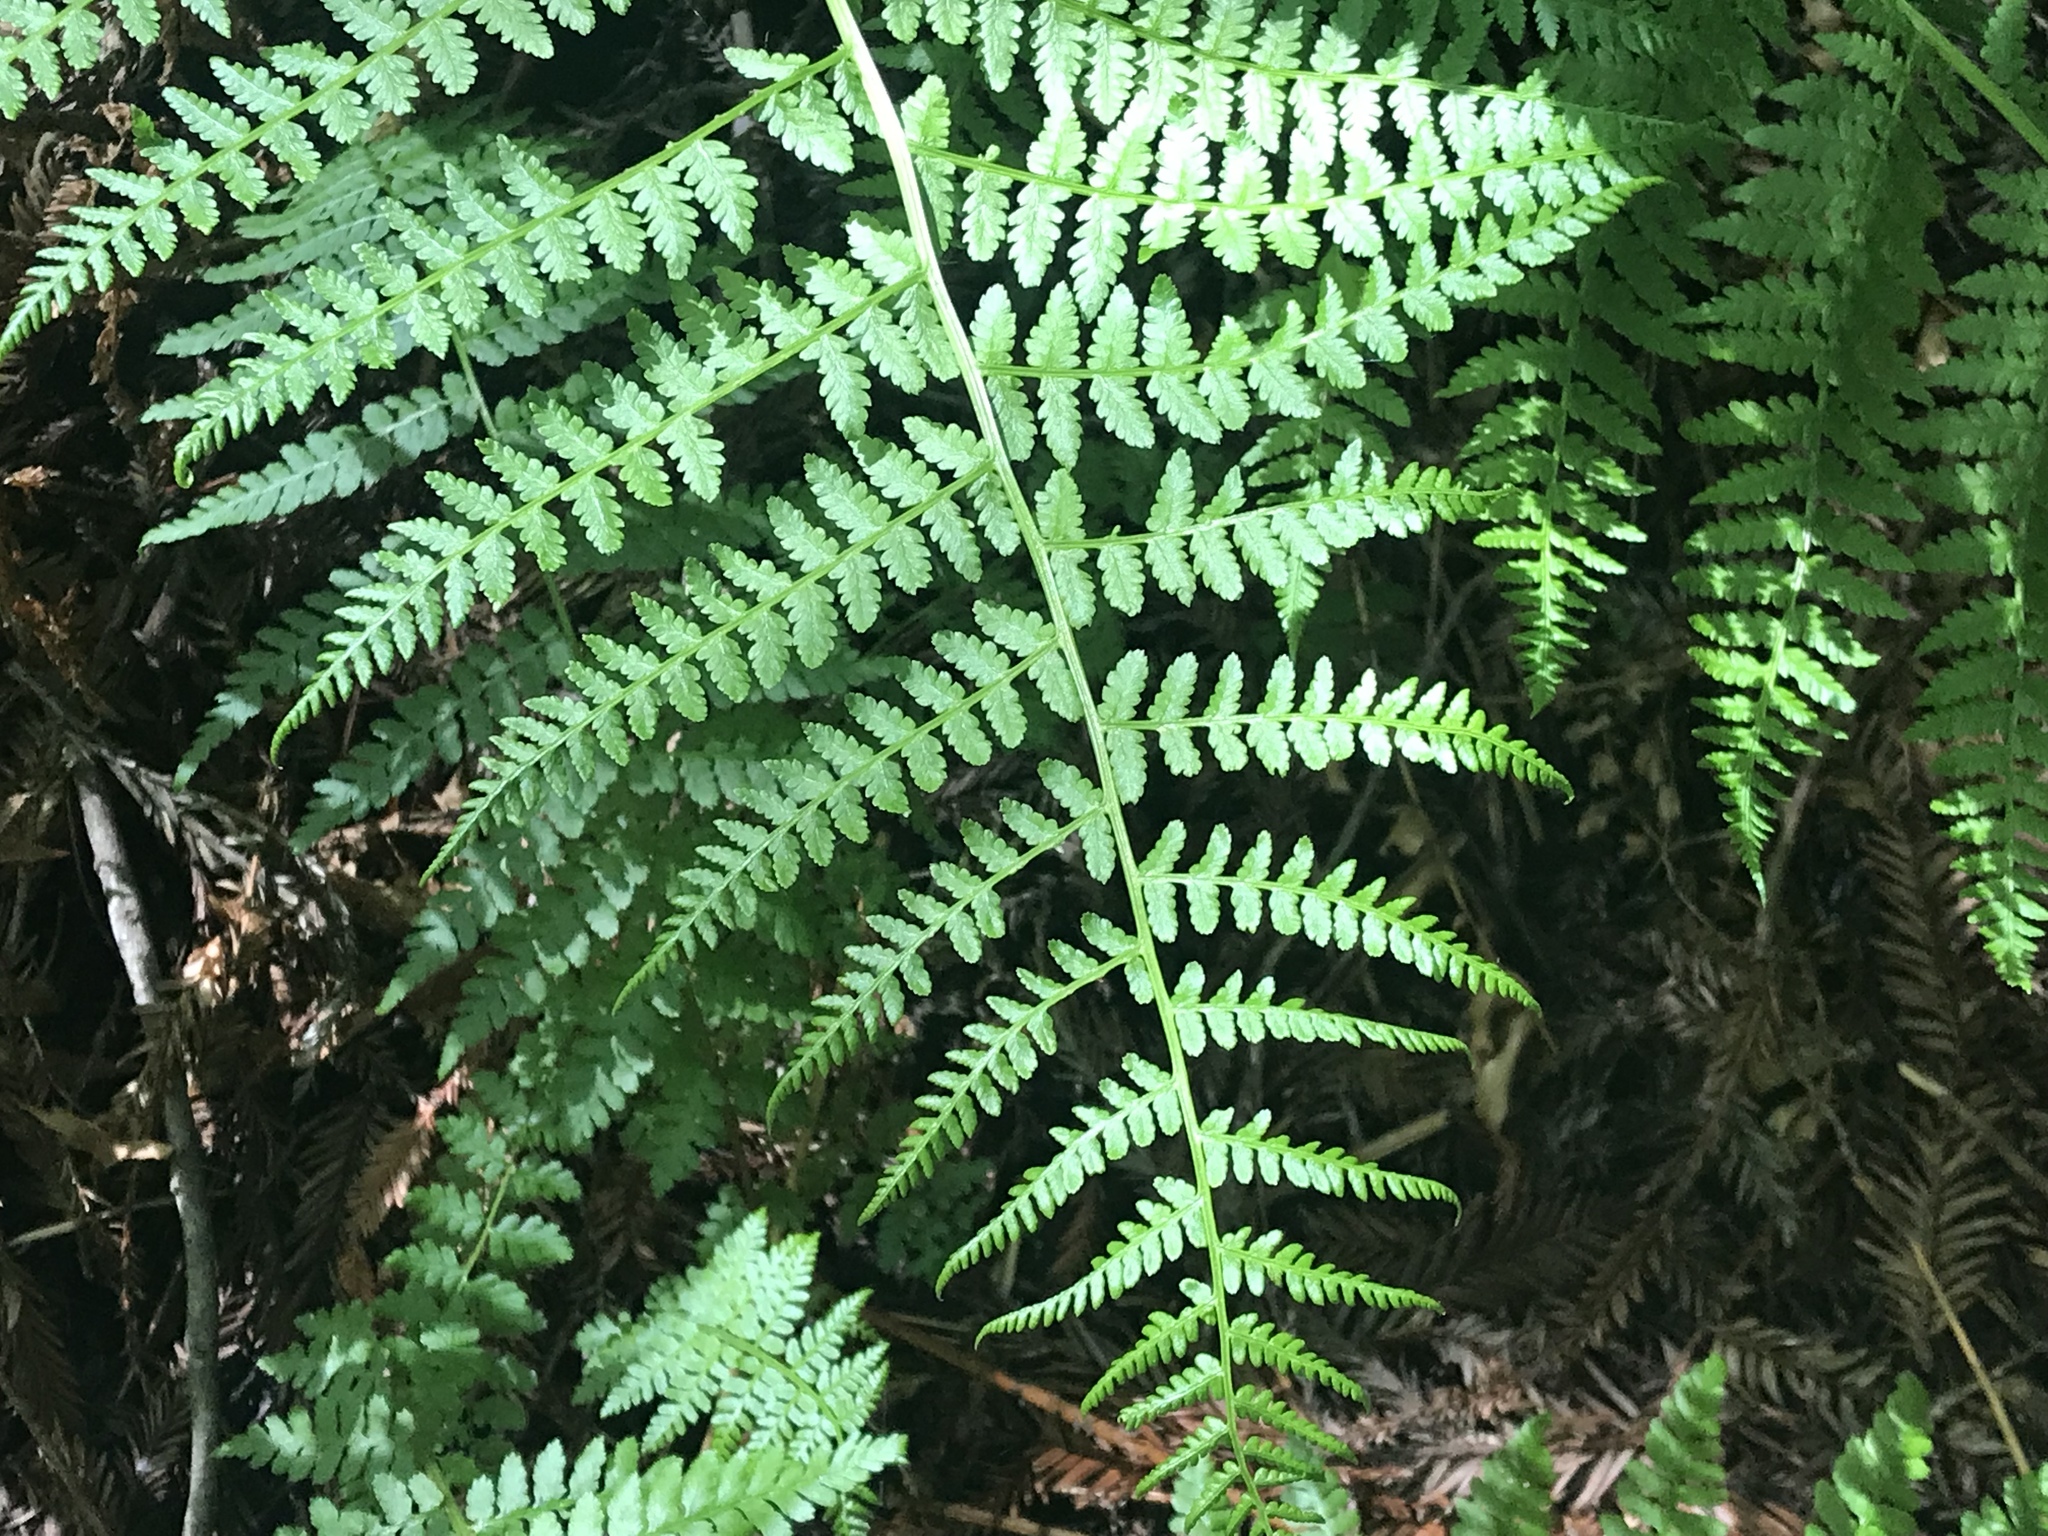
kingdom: Plantae
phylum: Tracheophyta
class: Polypodiopsida
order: Polypodiales
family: Athyriaceae
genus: Athyrium
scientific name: Athyrium filix-femina
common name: Lady fern
